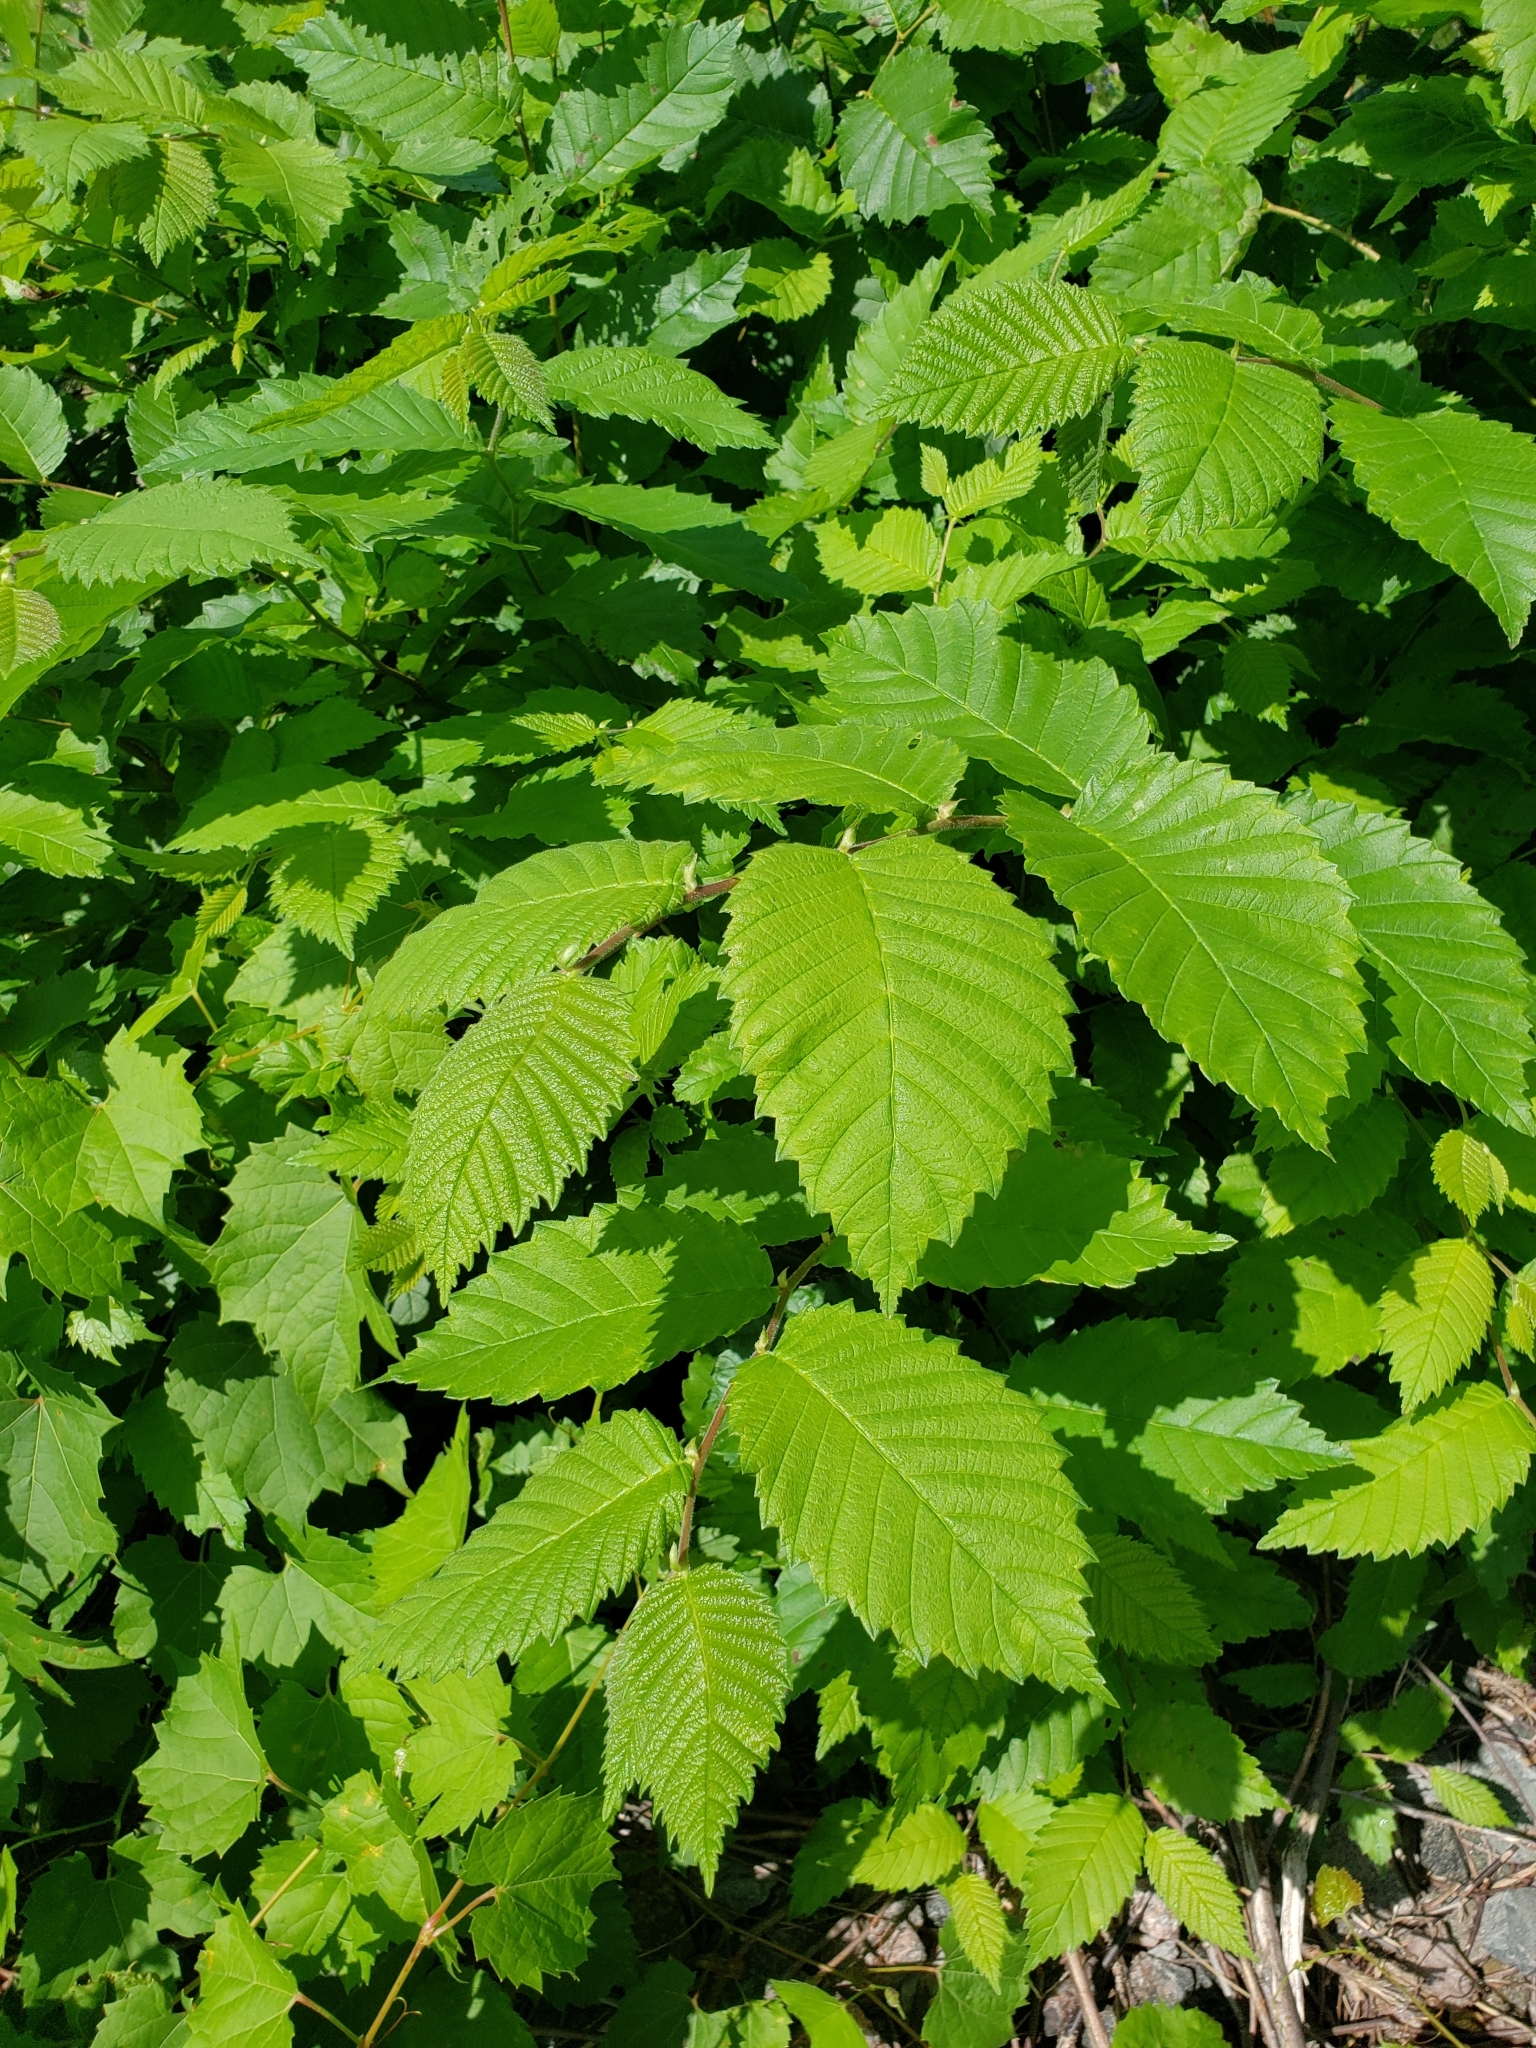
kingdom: Plantae
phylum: Tracheophyta
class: Magnoliopsida
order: Rosales
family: Ulmaceae
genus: Ulmus
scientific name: Ulmus americana
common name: American elm
